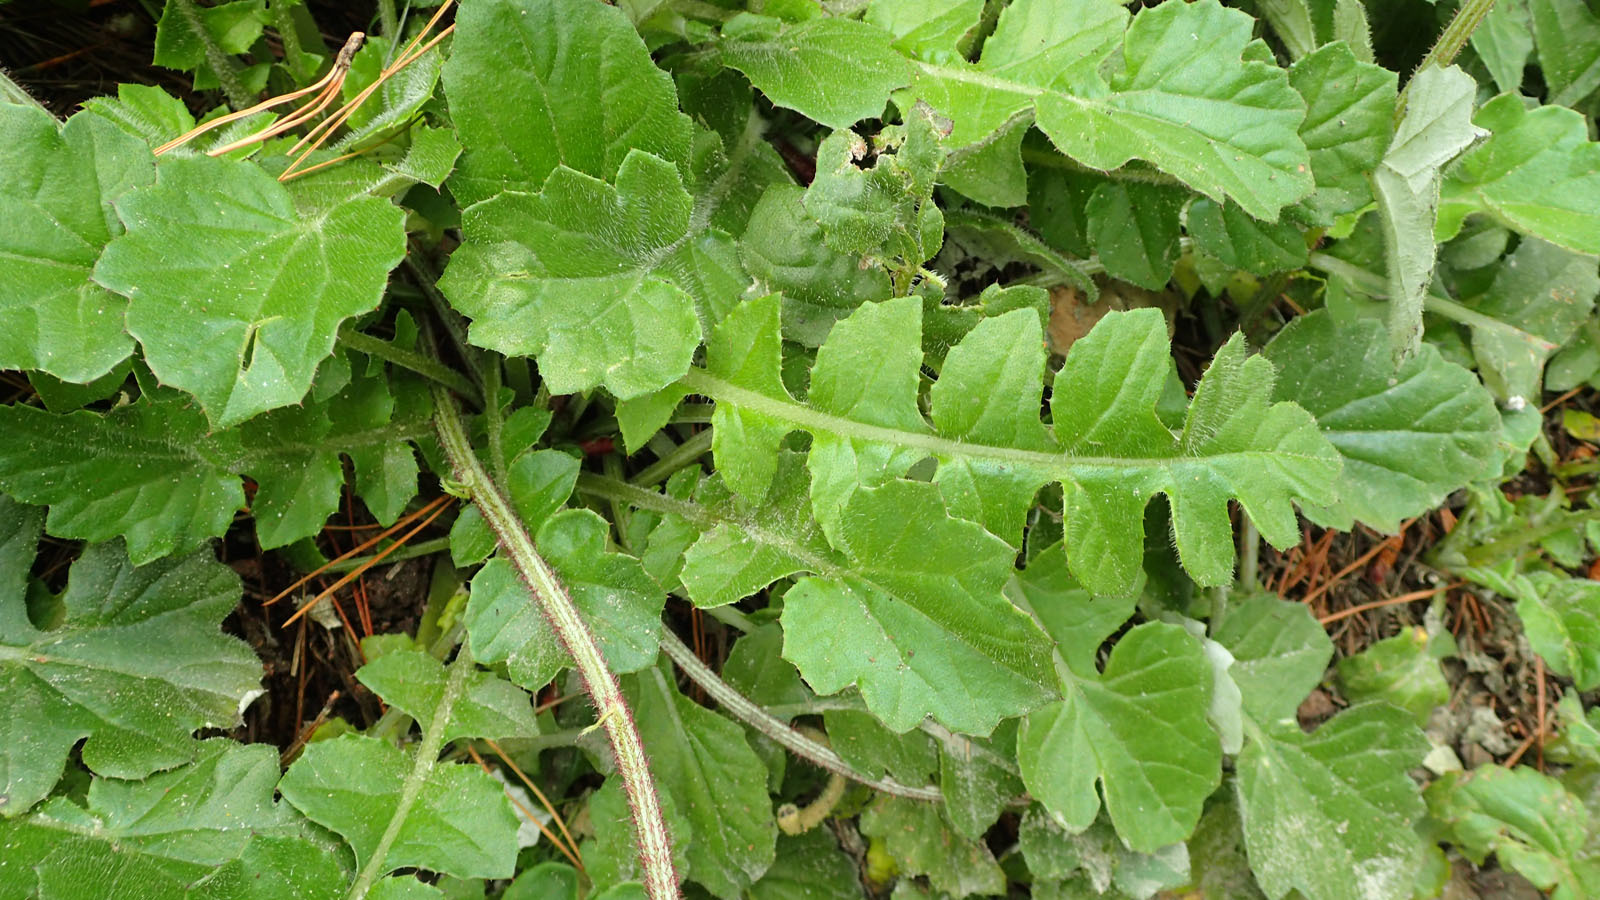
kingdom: Plantae
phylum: Tracheophyta
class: Magnoliopsida
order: Asterales
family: Asteraceae
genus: Arctotheca
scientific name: Arctotheca prostrata
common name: Capeweed
